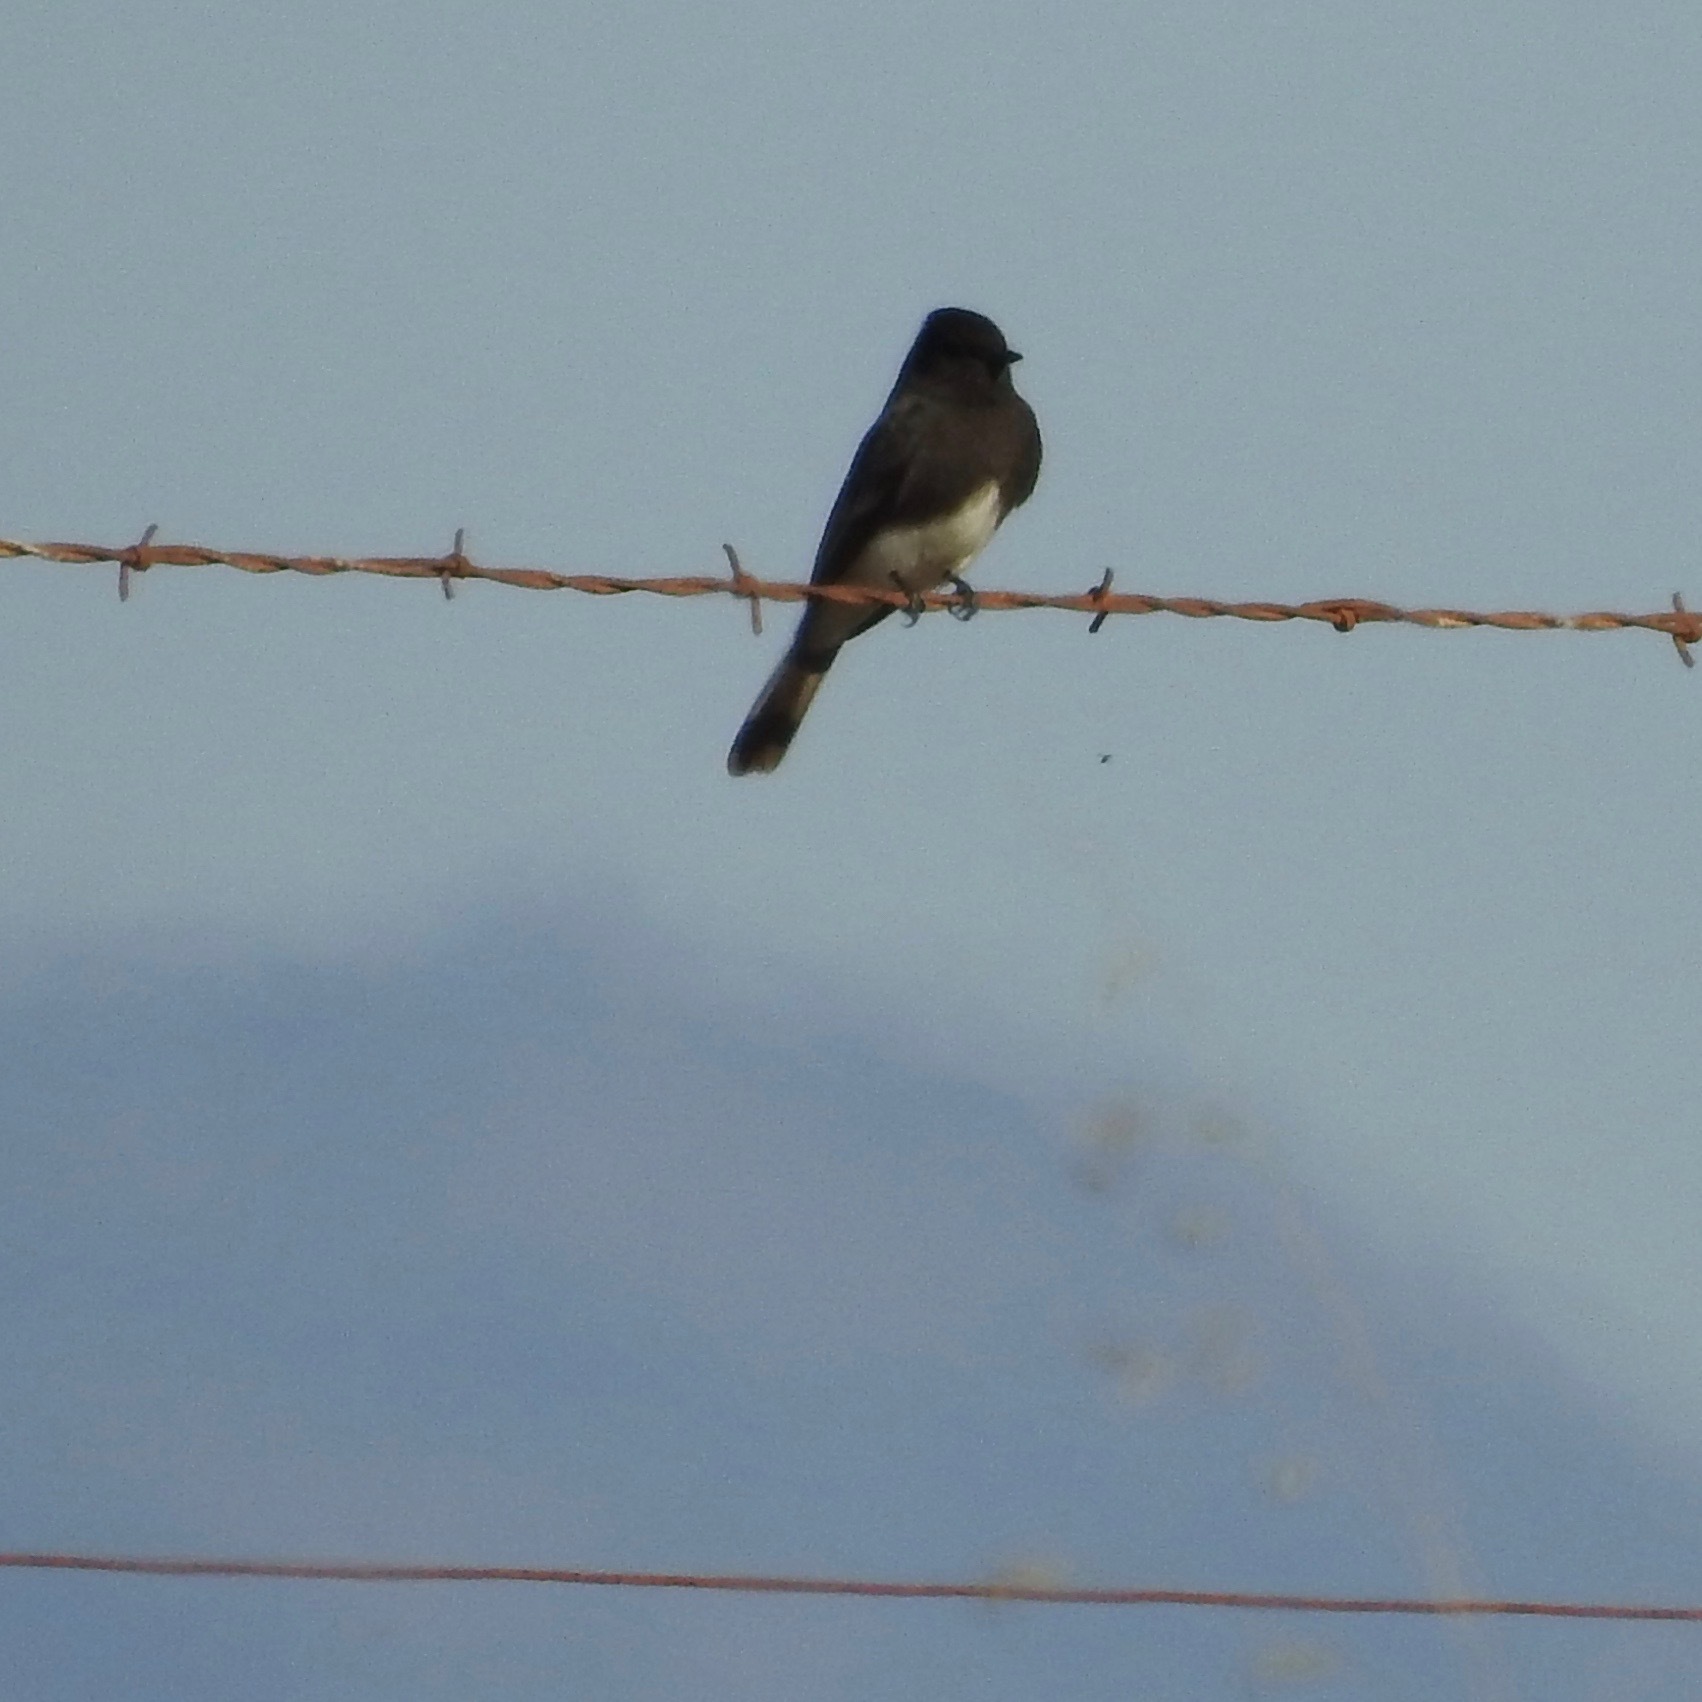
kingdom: Animalia
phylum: Chordata
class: Aves
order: Passeriformes
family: Tyrannidae
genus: Sayornis
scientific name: Sayornis nigricans
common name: Black phoebe
